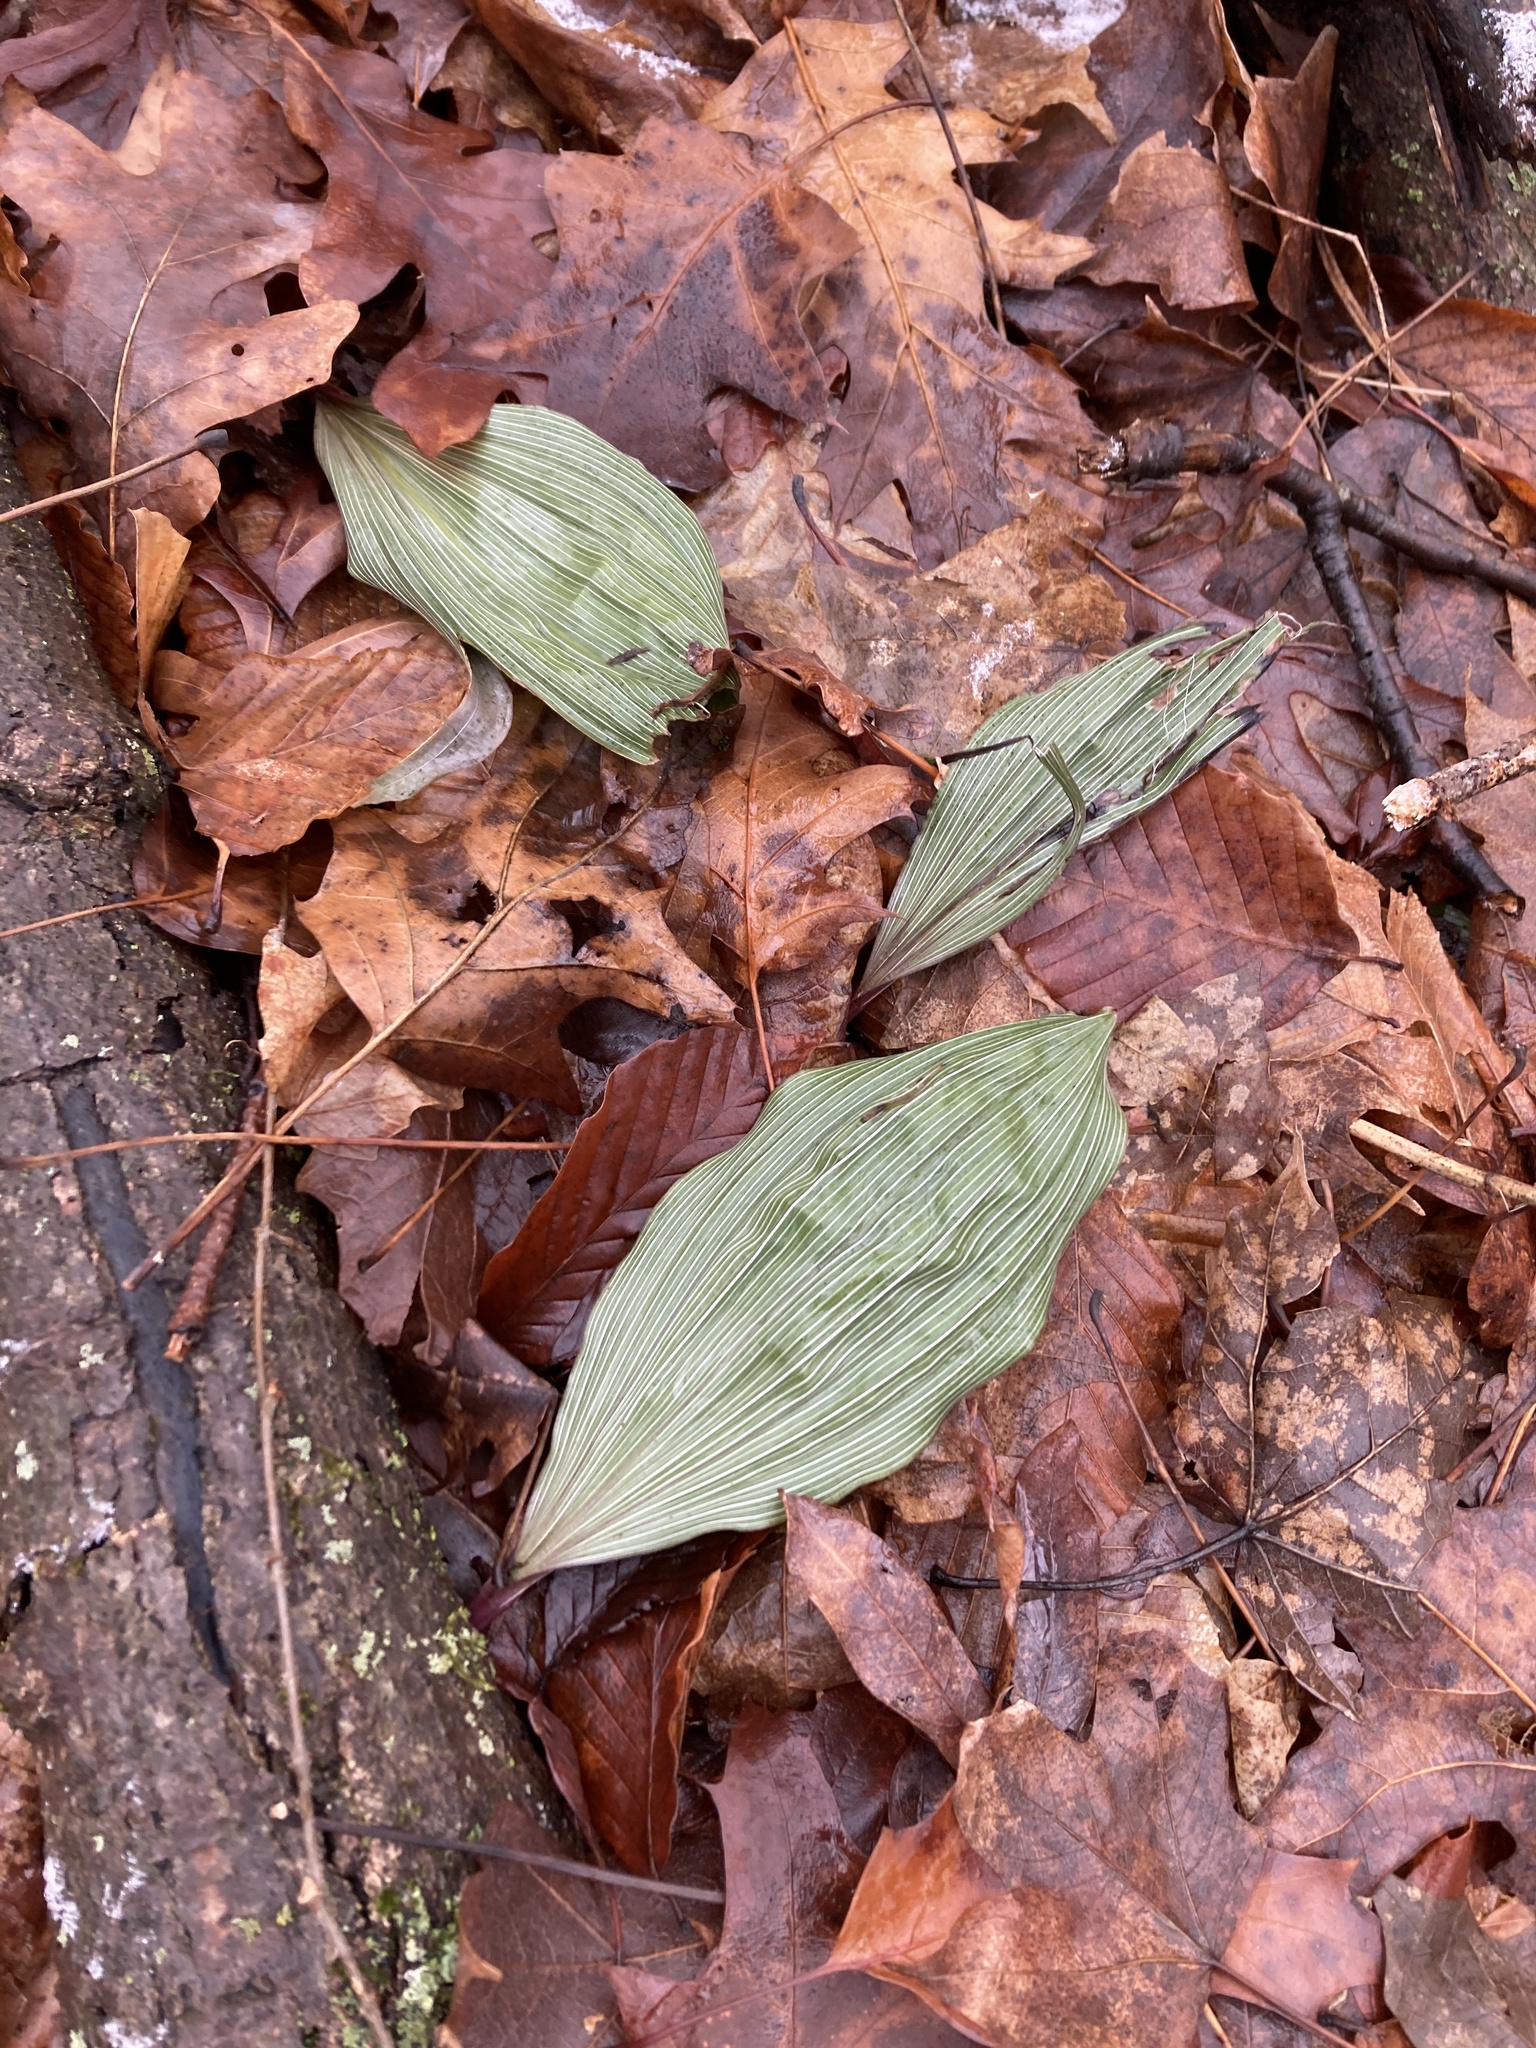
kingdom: Plantae
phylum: Tracheophyta
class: Liliopsida
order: Asparagales
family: Orchidaceae
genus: Aplectrum
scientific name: Aplectrum hyemale
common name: Adam-and-eve
